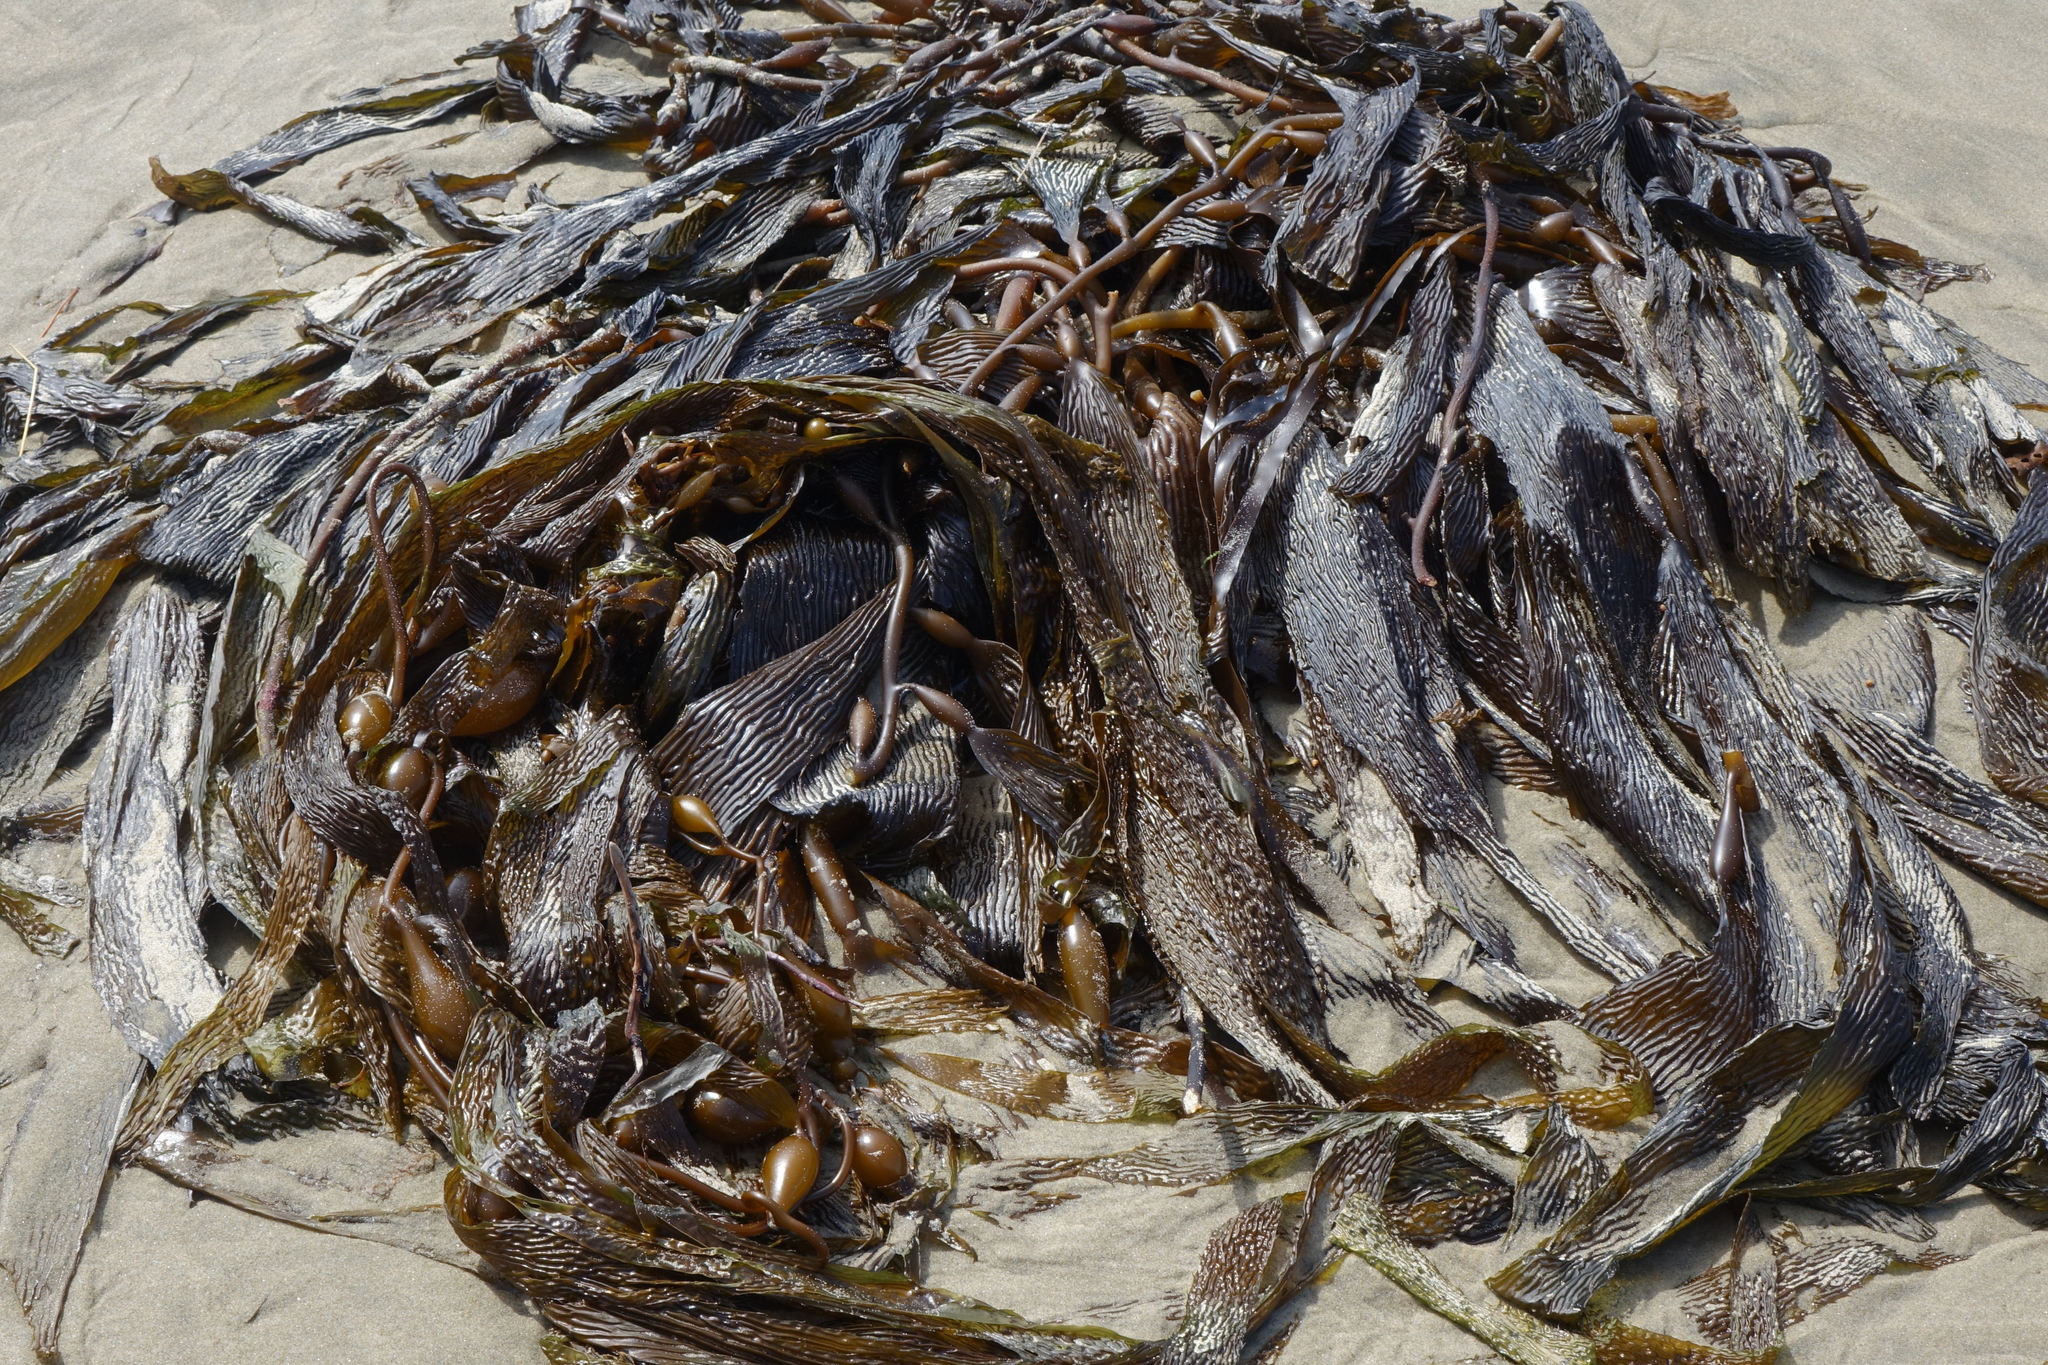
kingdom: Chromista
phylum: Ochrophyta
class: Phaeophyceae
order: Laminariales
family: Laminariaceae
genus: Macrocystis
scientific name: Macrocystis pyrifera
